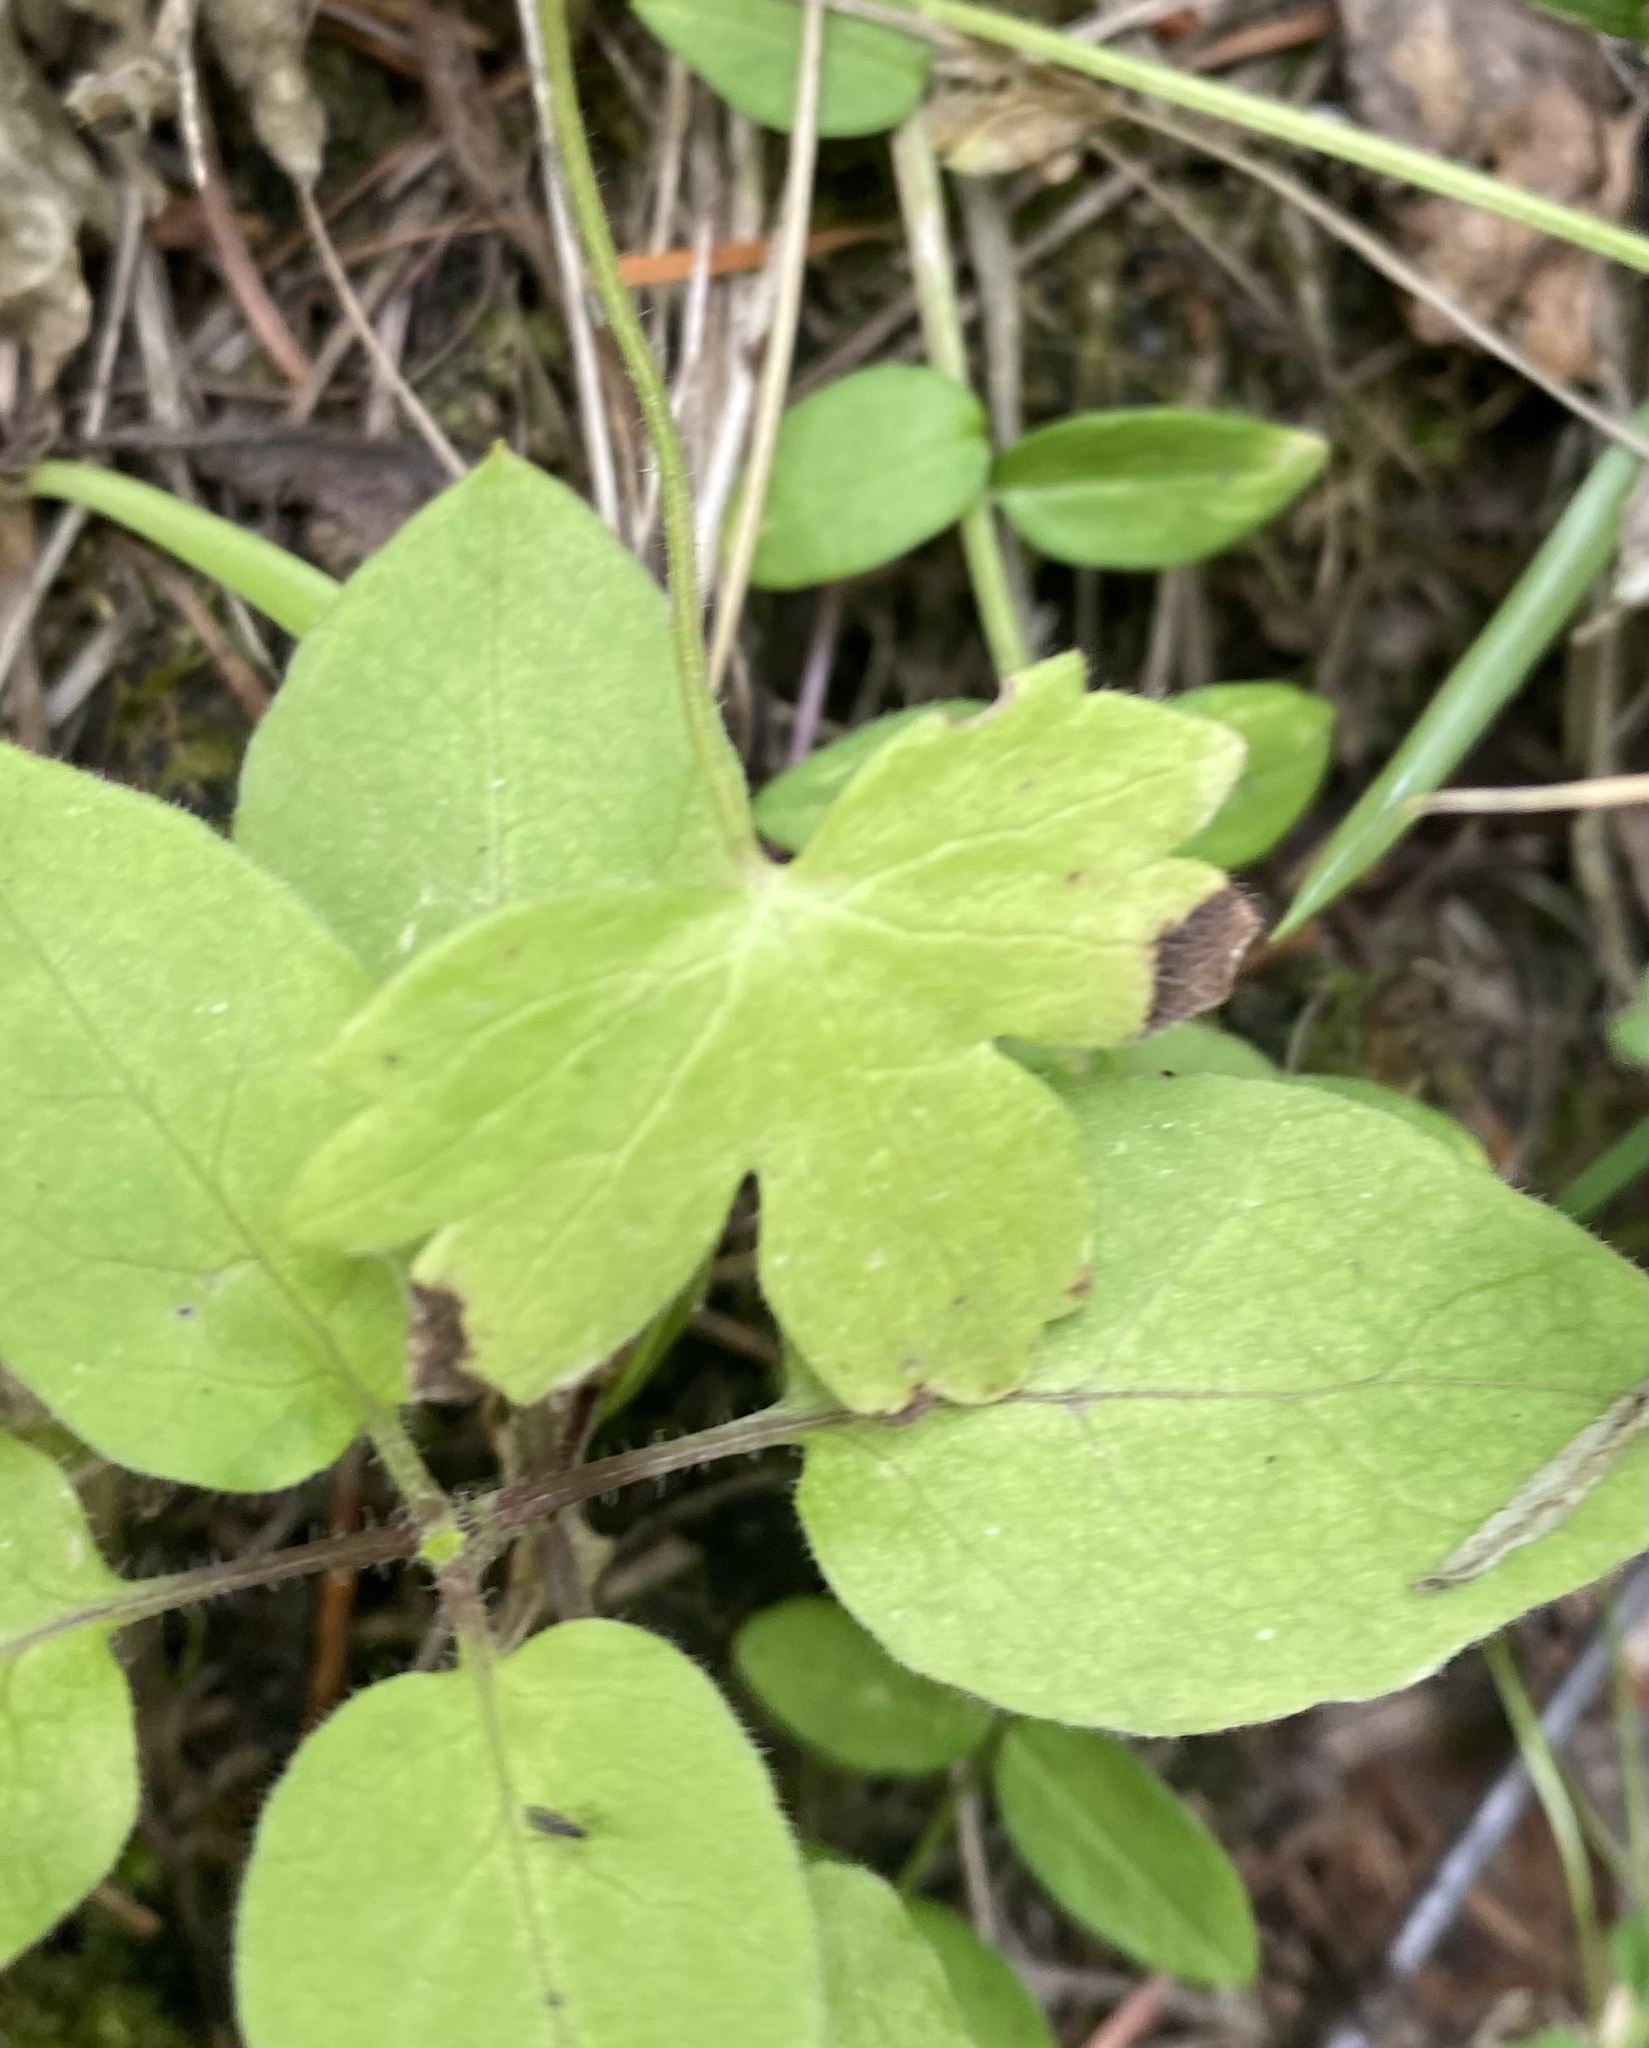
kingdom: Plantae
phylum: Tracheophyta
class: Magnoliopsida
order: Caryophyllales
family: Caryophyllaceae
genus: Stellaria
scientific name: Stellaria bungeana
